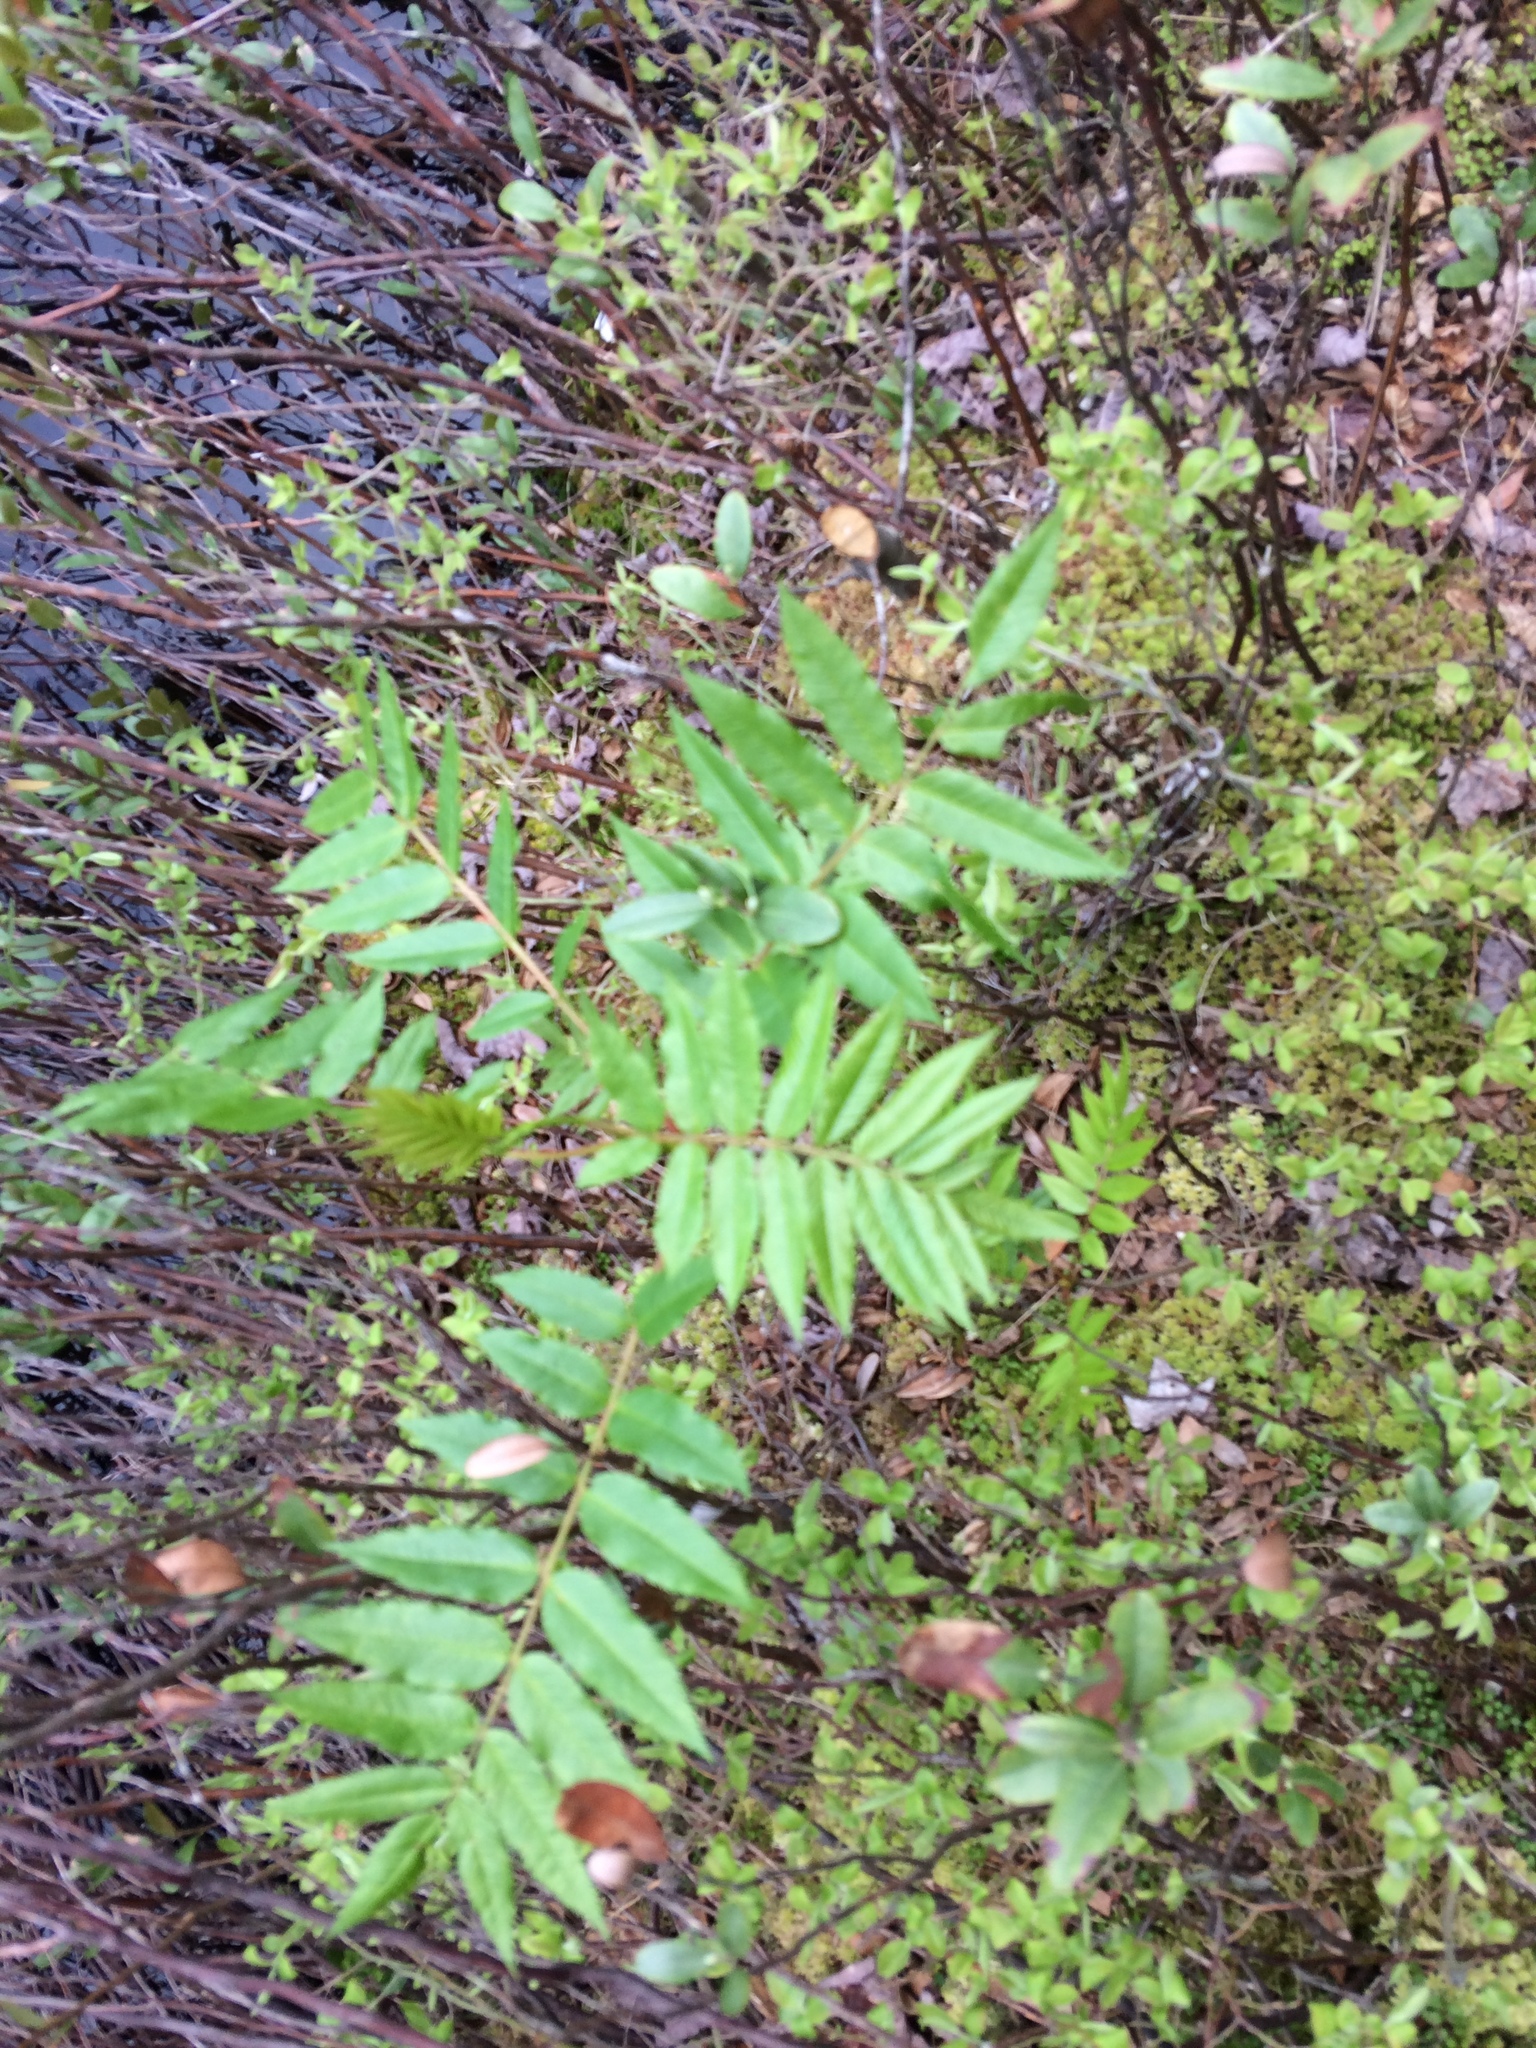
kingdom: Plantae
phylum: Tracheophyta
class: Magnoliopsida
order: Rosales
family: Rosaceae
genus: Sorbus
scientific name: Sorbus americana
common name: American mountain-ash
